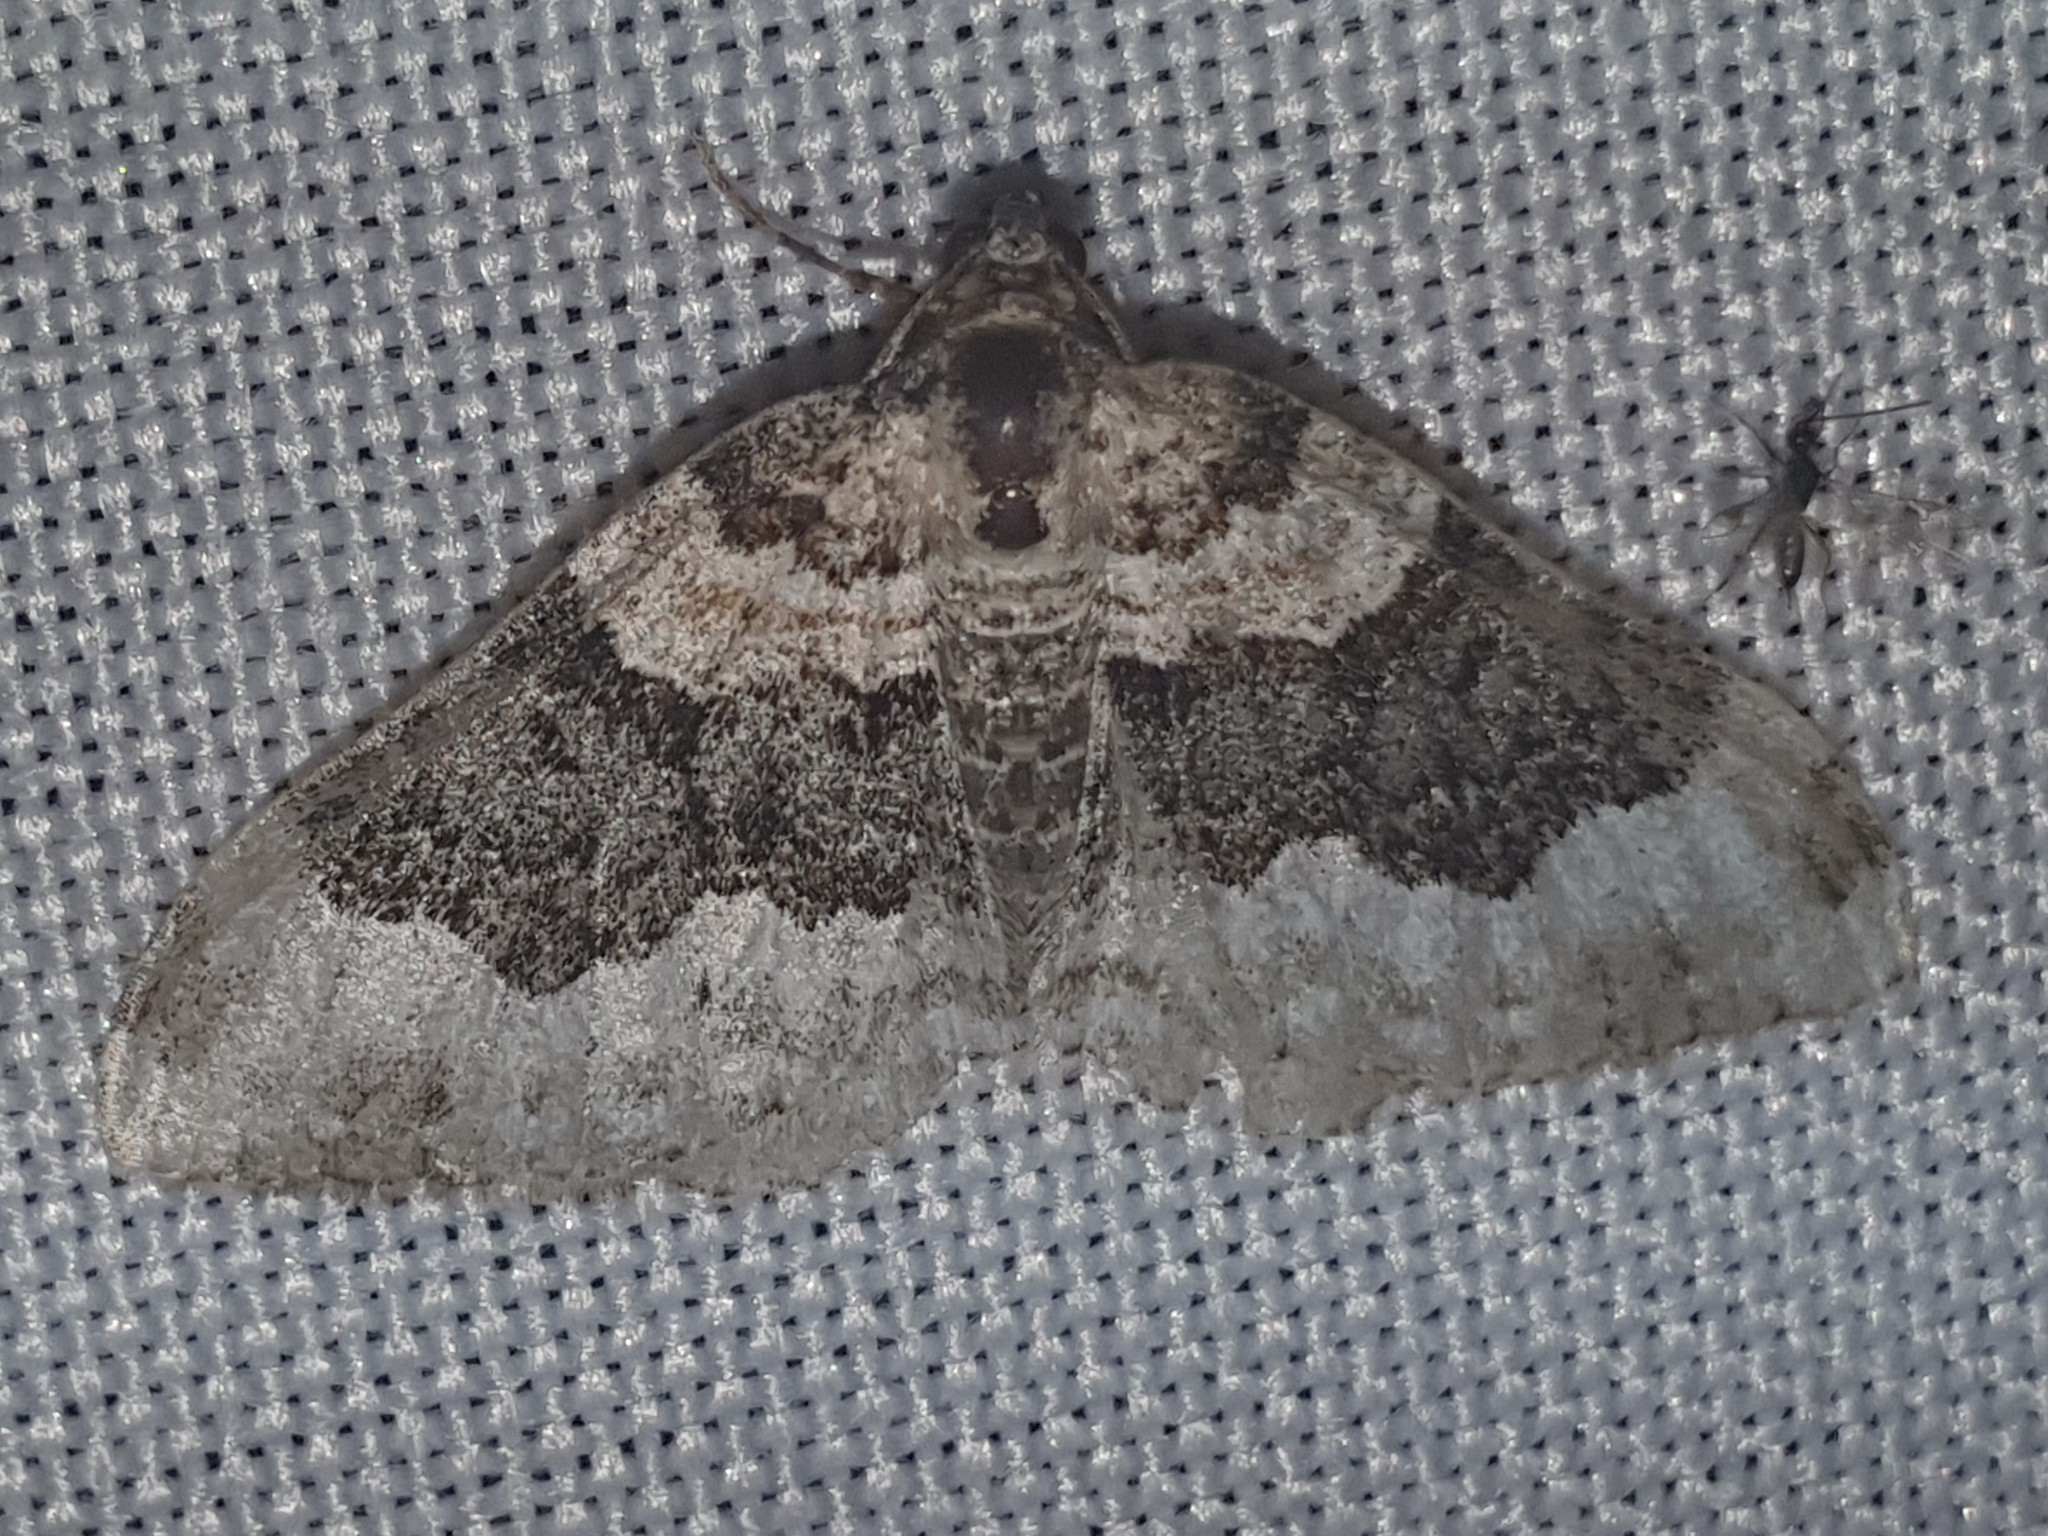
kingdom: Animalia
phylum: Arthropoda
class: Insecta
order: Lepidoptera
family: Geometridae
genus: Epirrhoe
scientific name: Epirrhoe galiata
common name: Galium carpet
